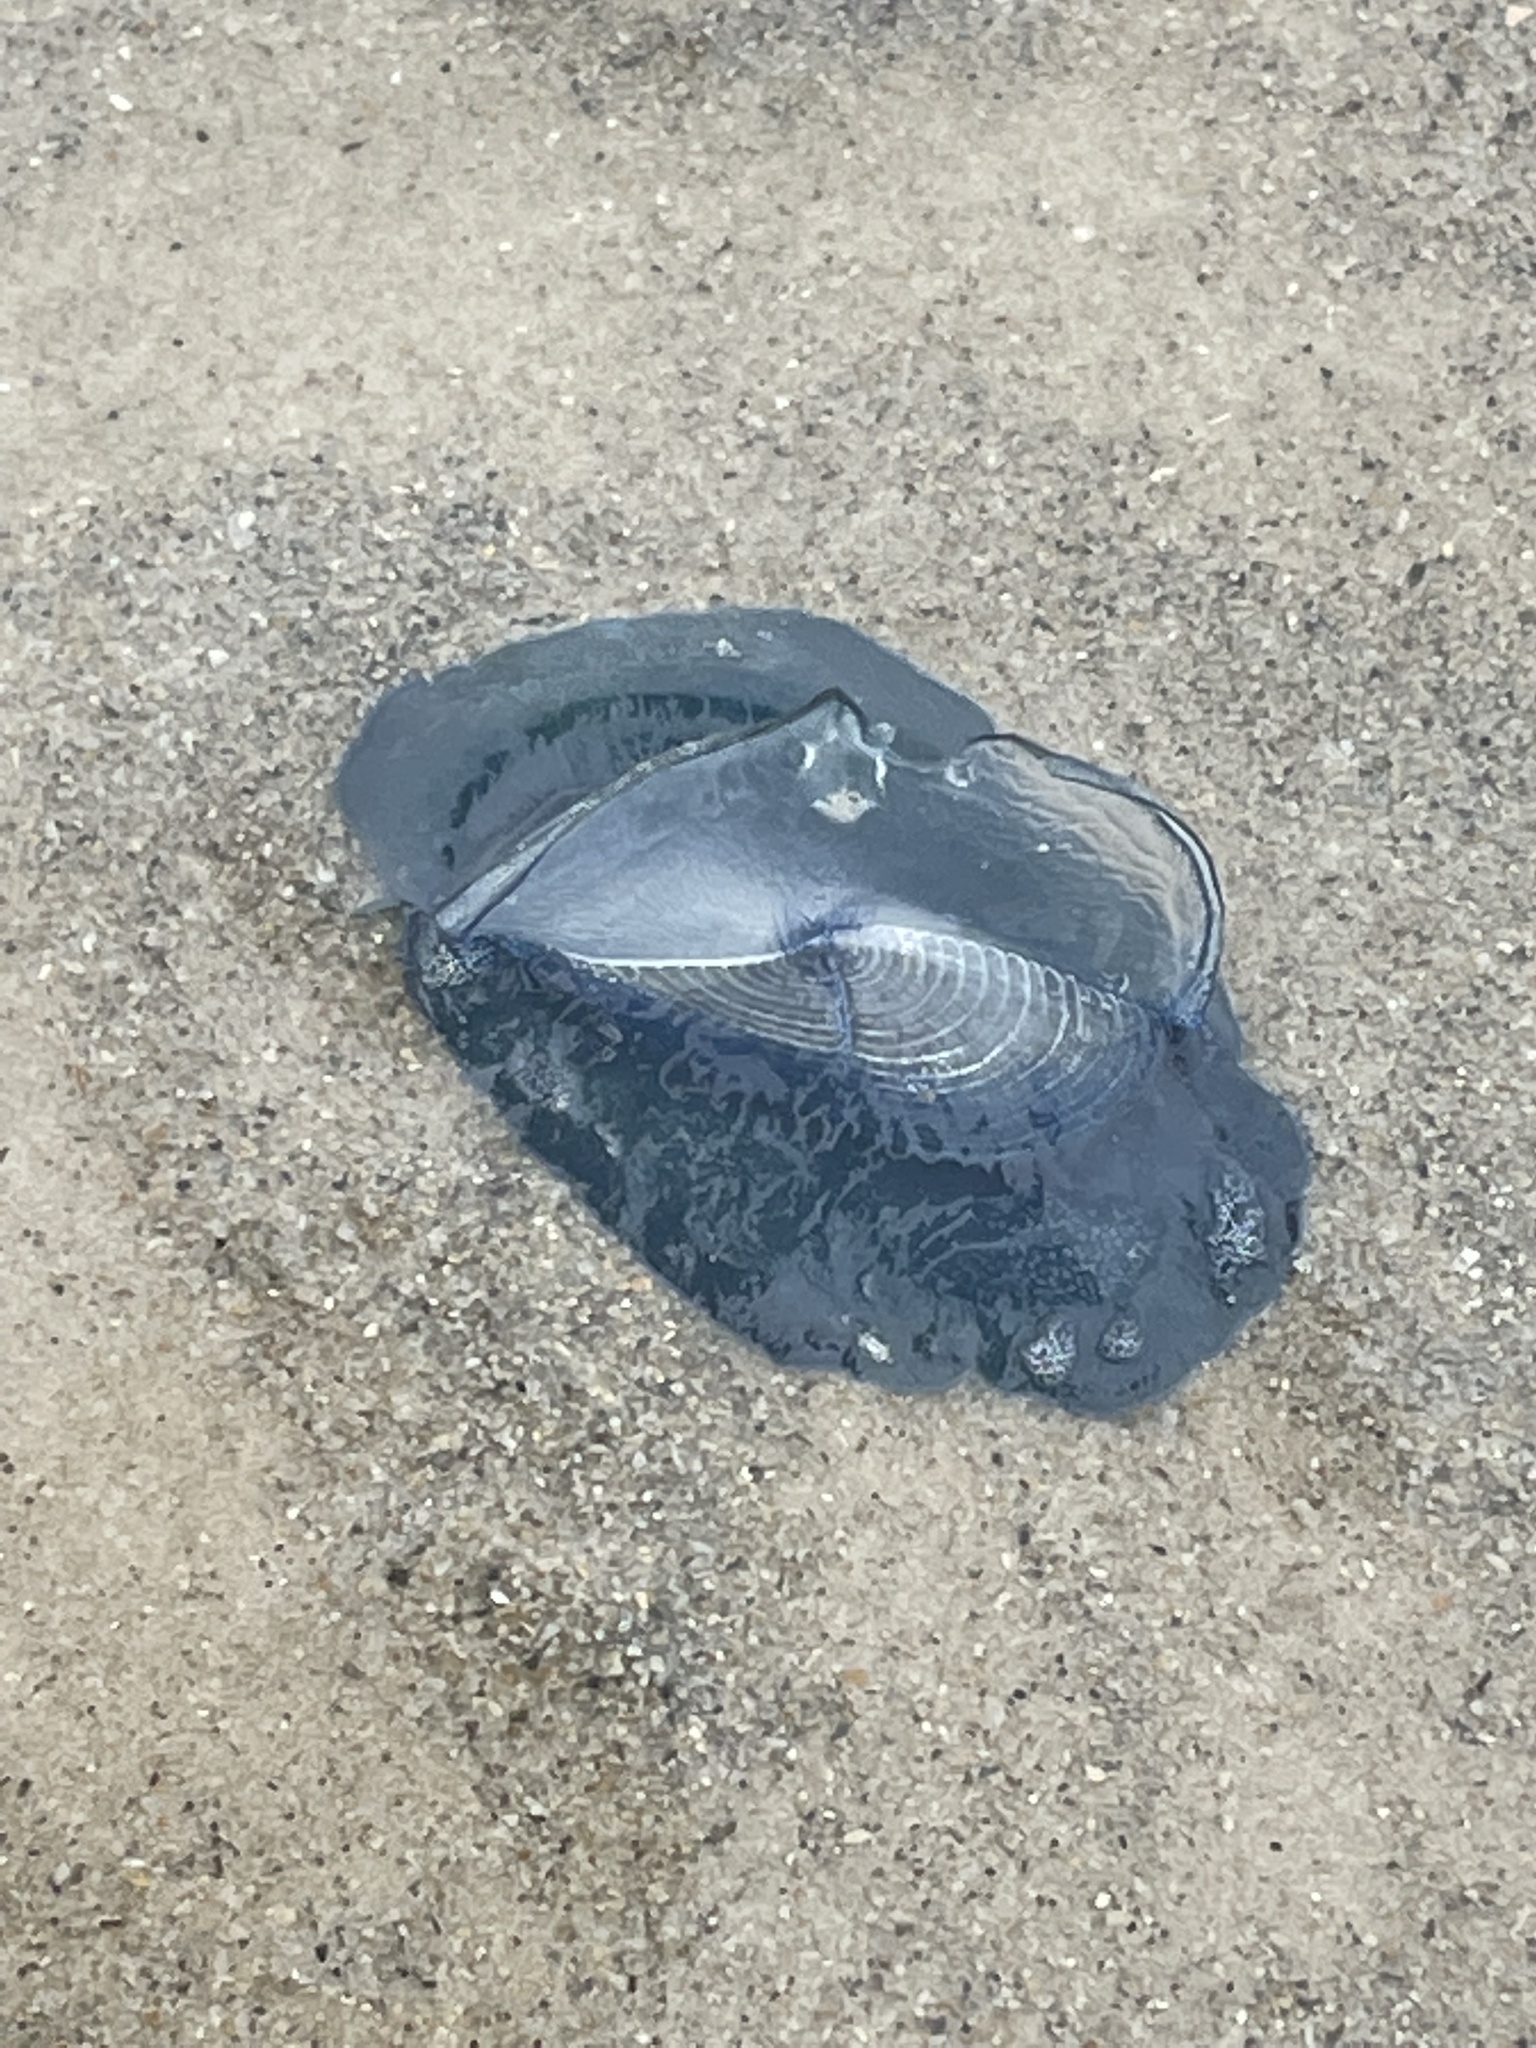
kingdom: Animalia
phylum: Cnidaria
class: Hydrozoa
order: Anthoathecata
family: Porpitidae
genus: Velella
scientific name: Velella velella
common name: By-the-wind-sailor
